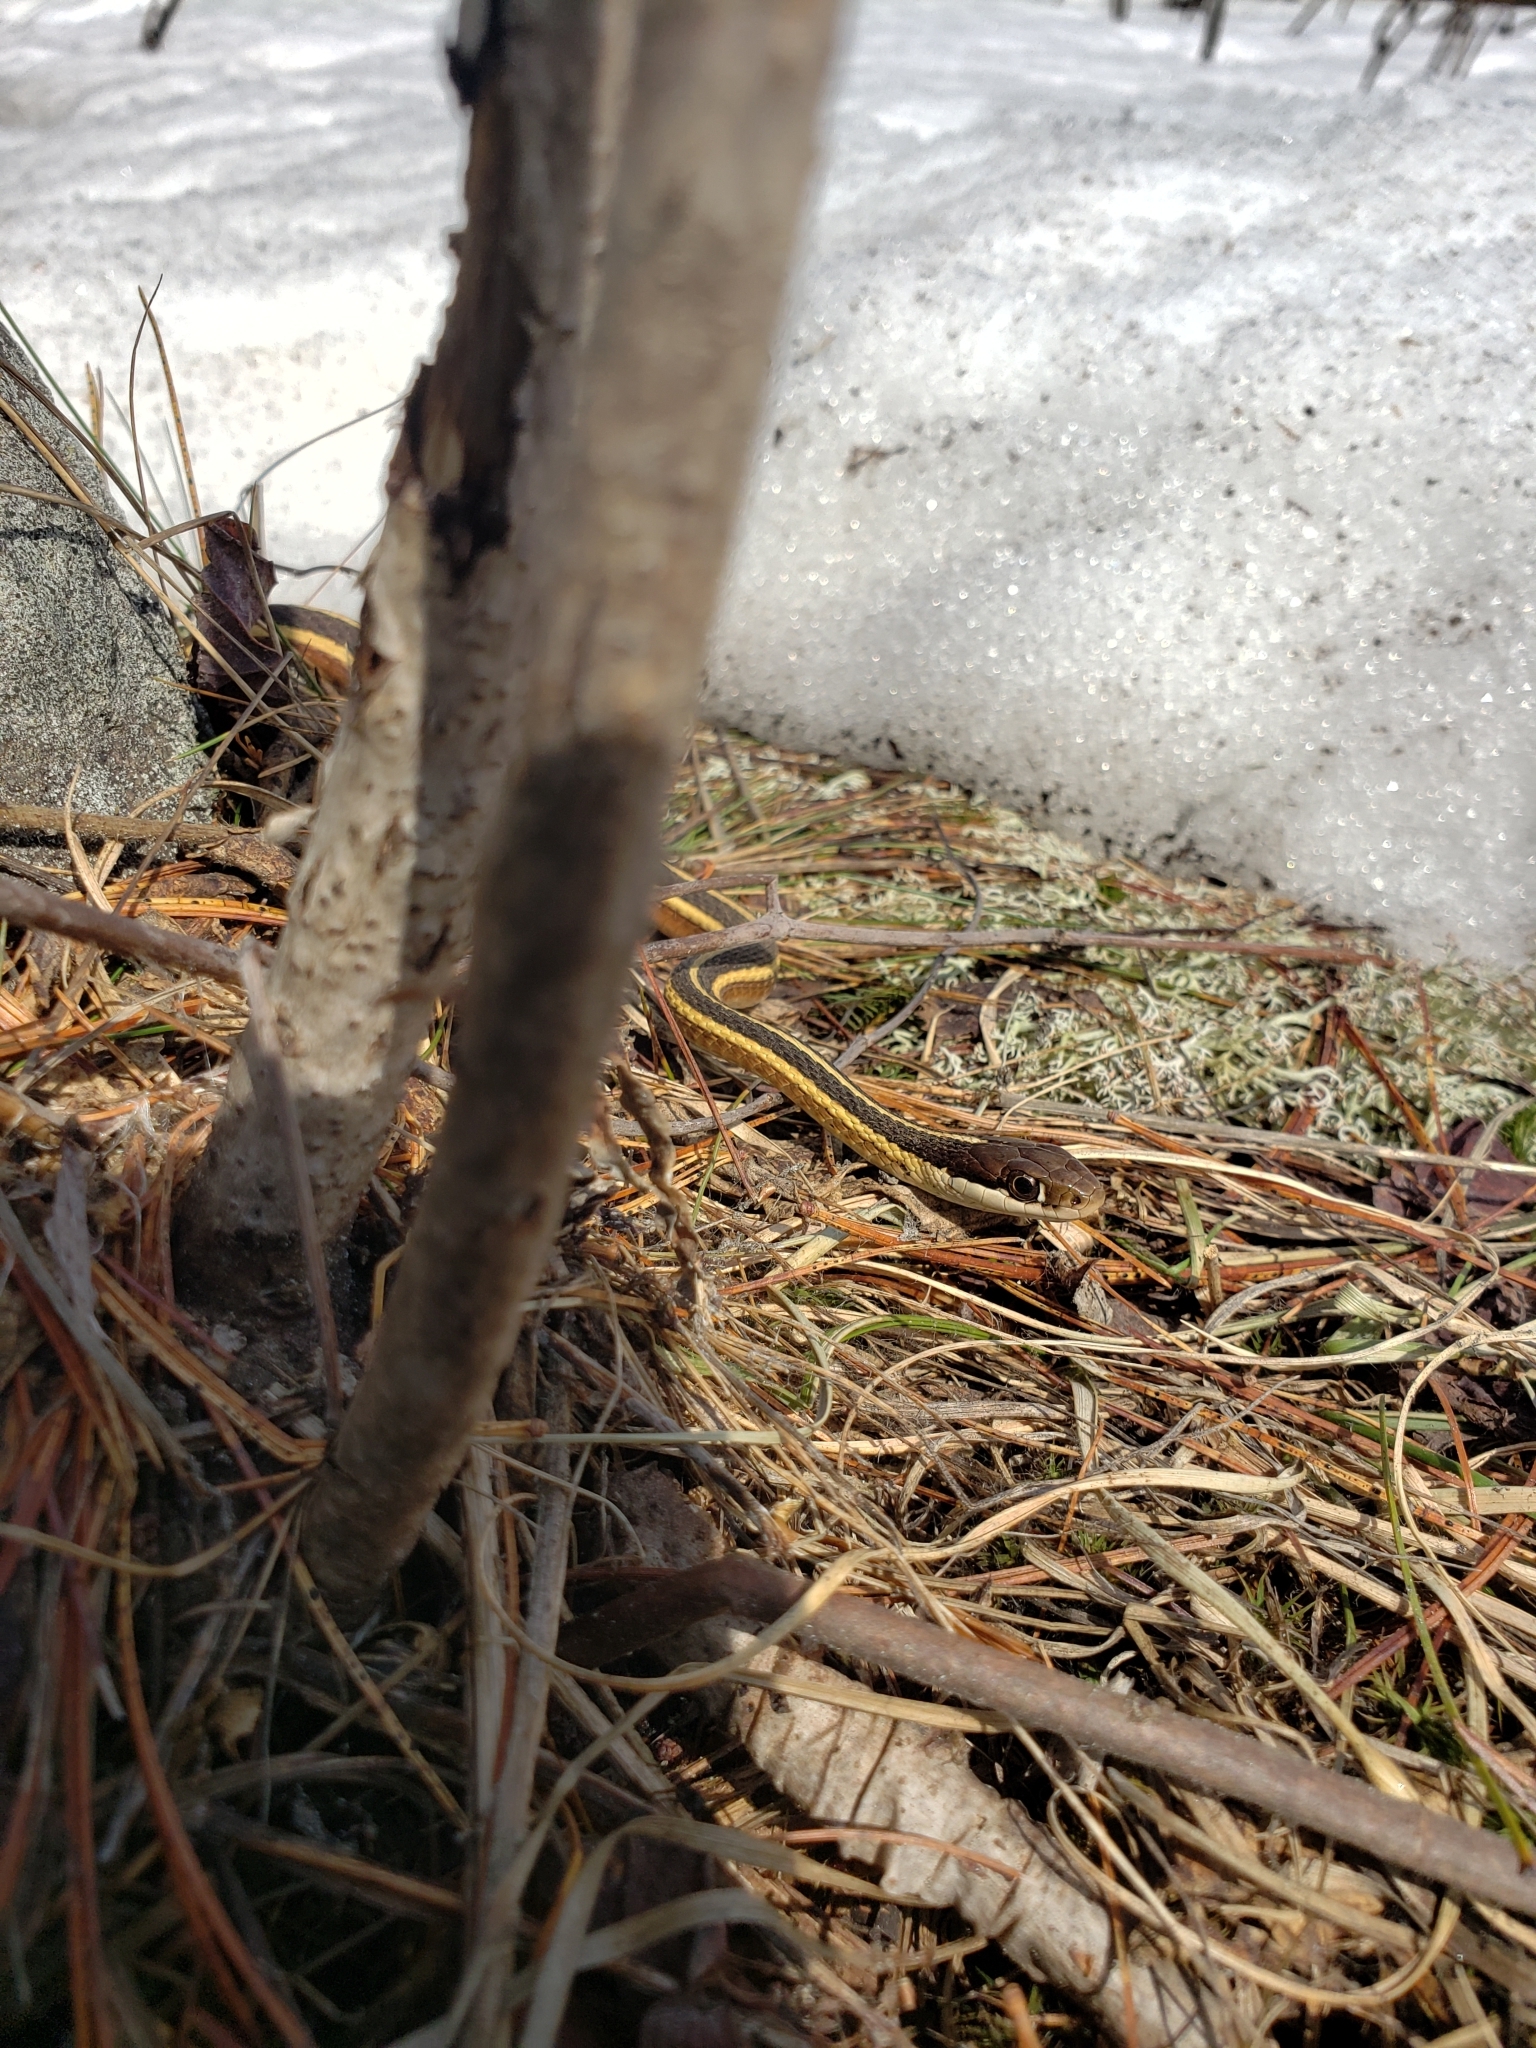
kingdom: Animalia
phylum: Chordata
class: Squamata
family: Colubridae
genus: Thamnophis
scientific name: Thamnophis saurita
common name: Eastern ribbonsnake
